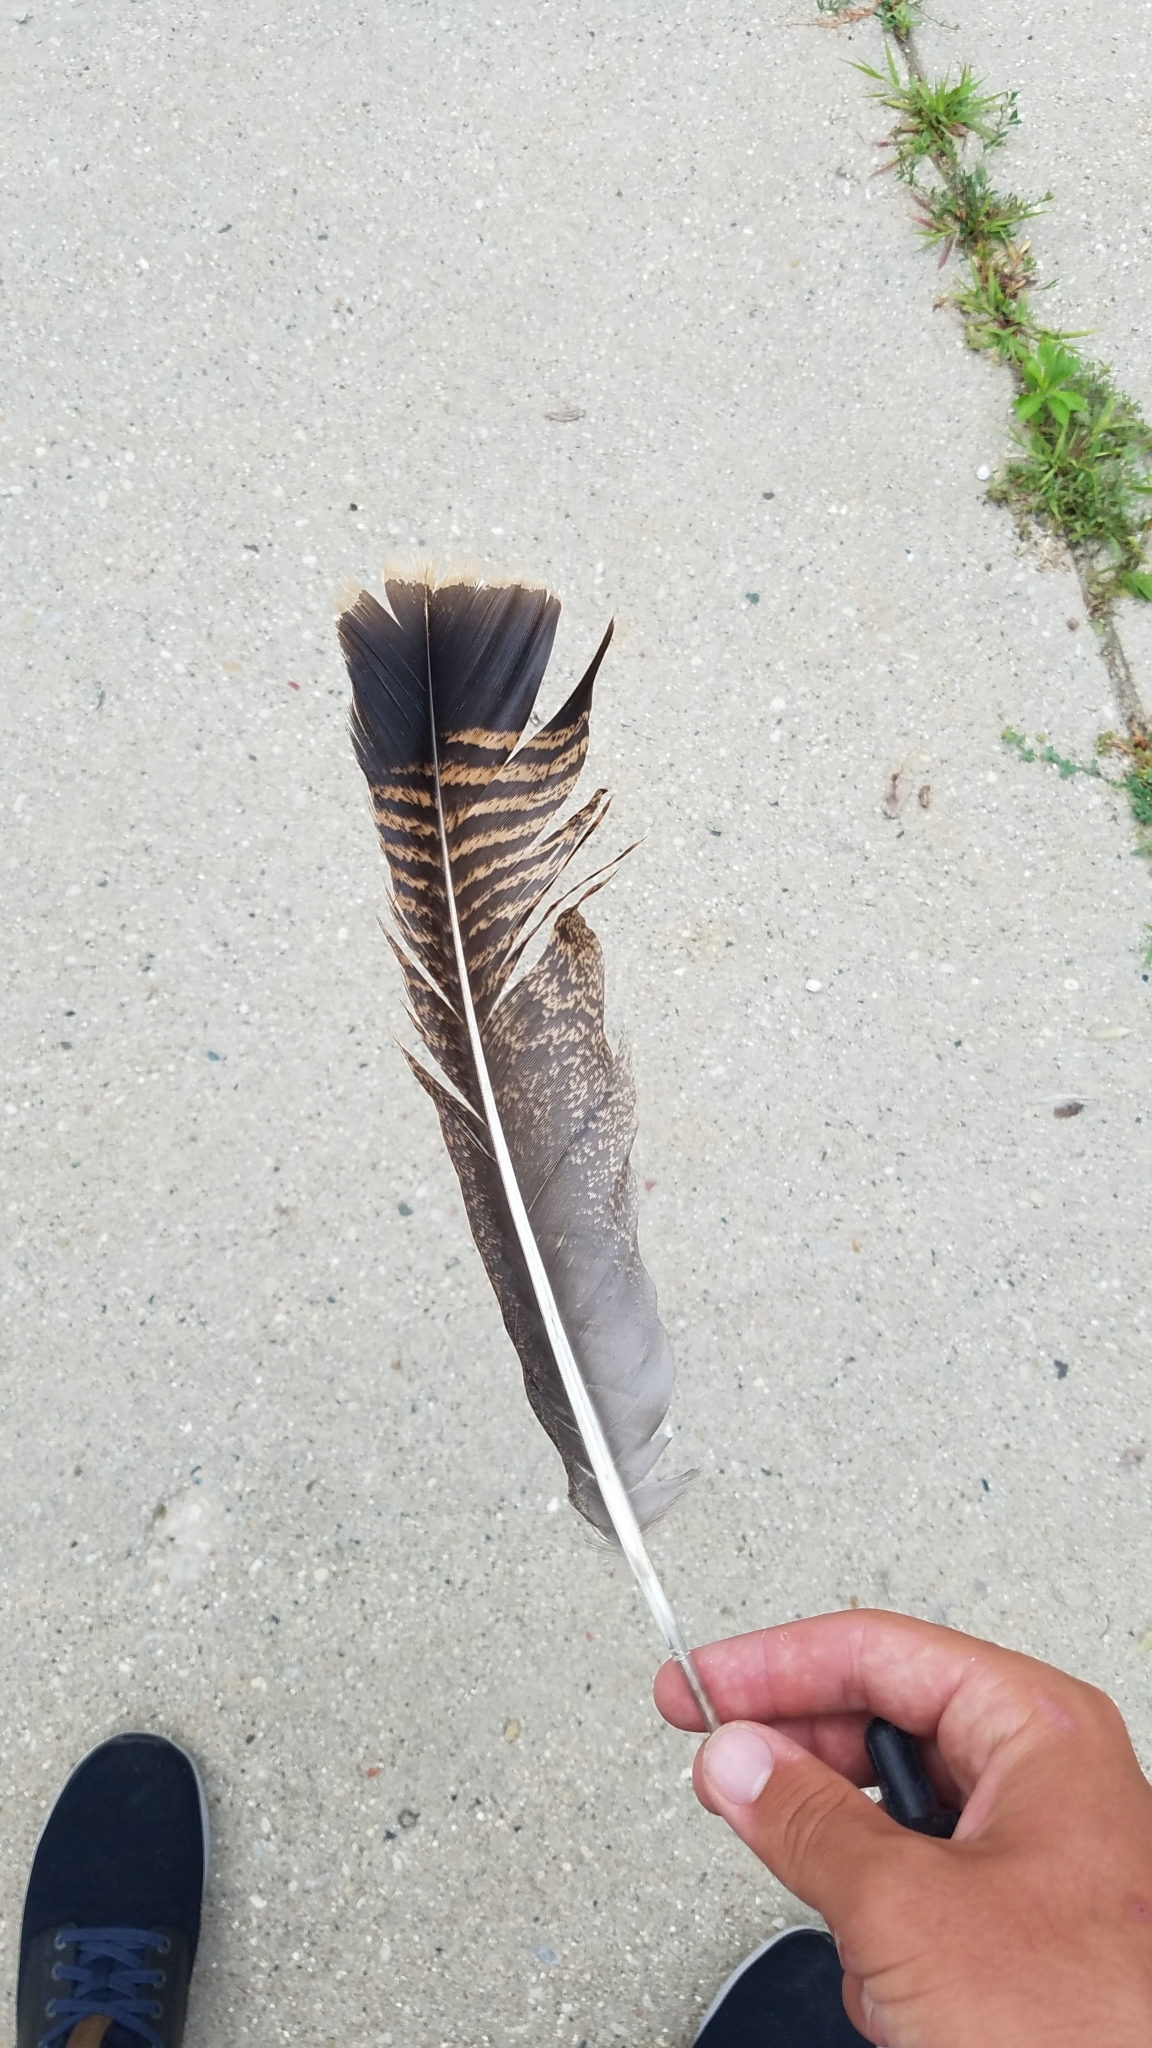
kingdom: Animalia
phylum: Chordata
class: Aves
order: Galliformes
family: Phasianidae
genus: Meleagris
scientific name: Meleagris gallopavo
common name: Wild turkey
